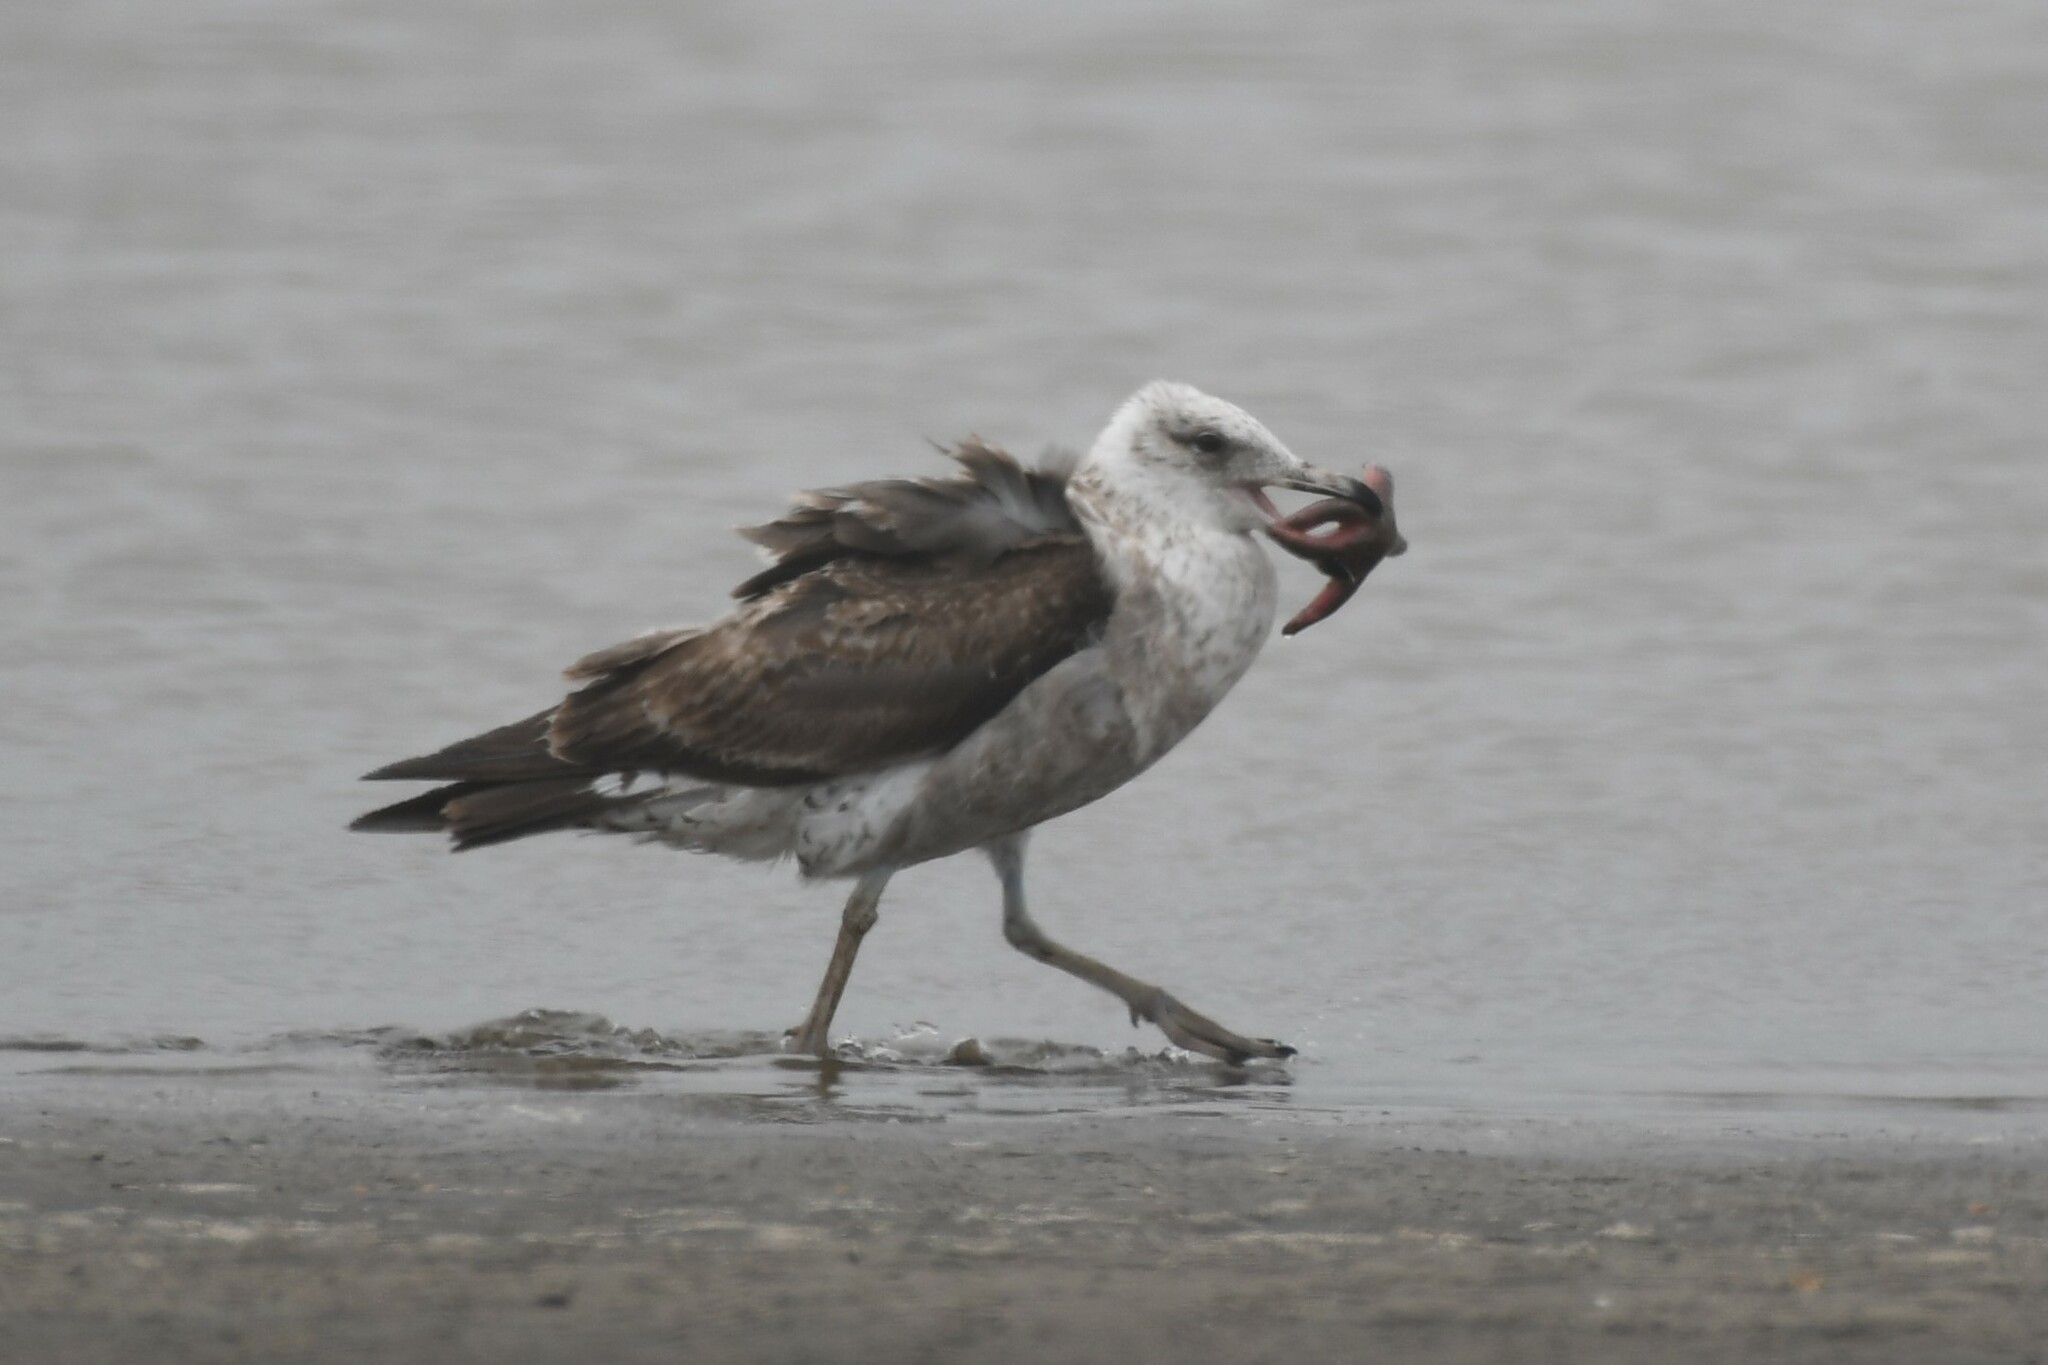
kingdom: Animalia
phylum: Chordata
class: Aves
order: Charadriiformes
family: Laridae
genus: Larus
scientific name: Larus dominicanus
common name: Kelp gull
